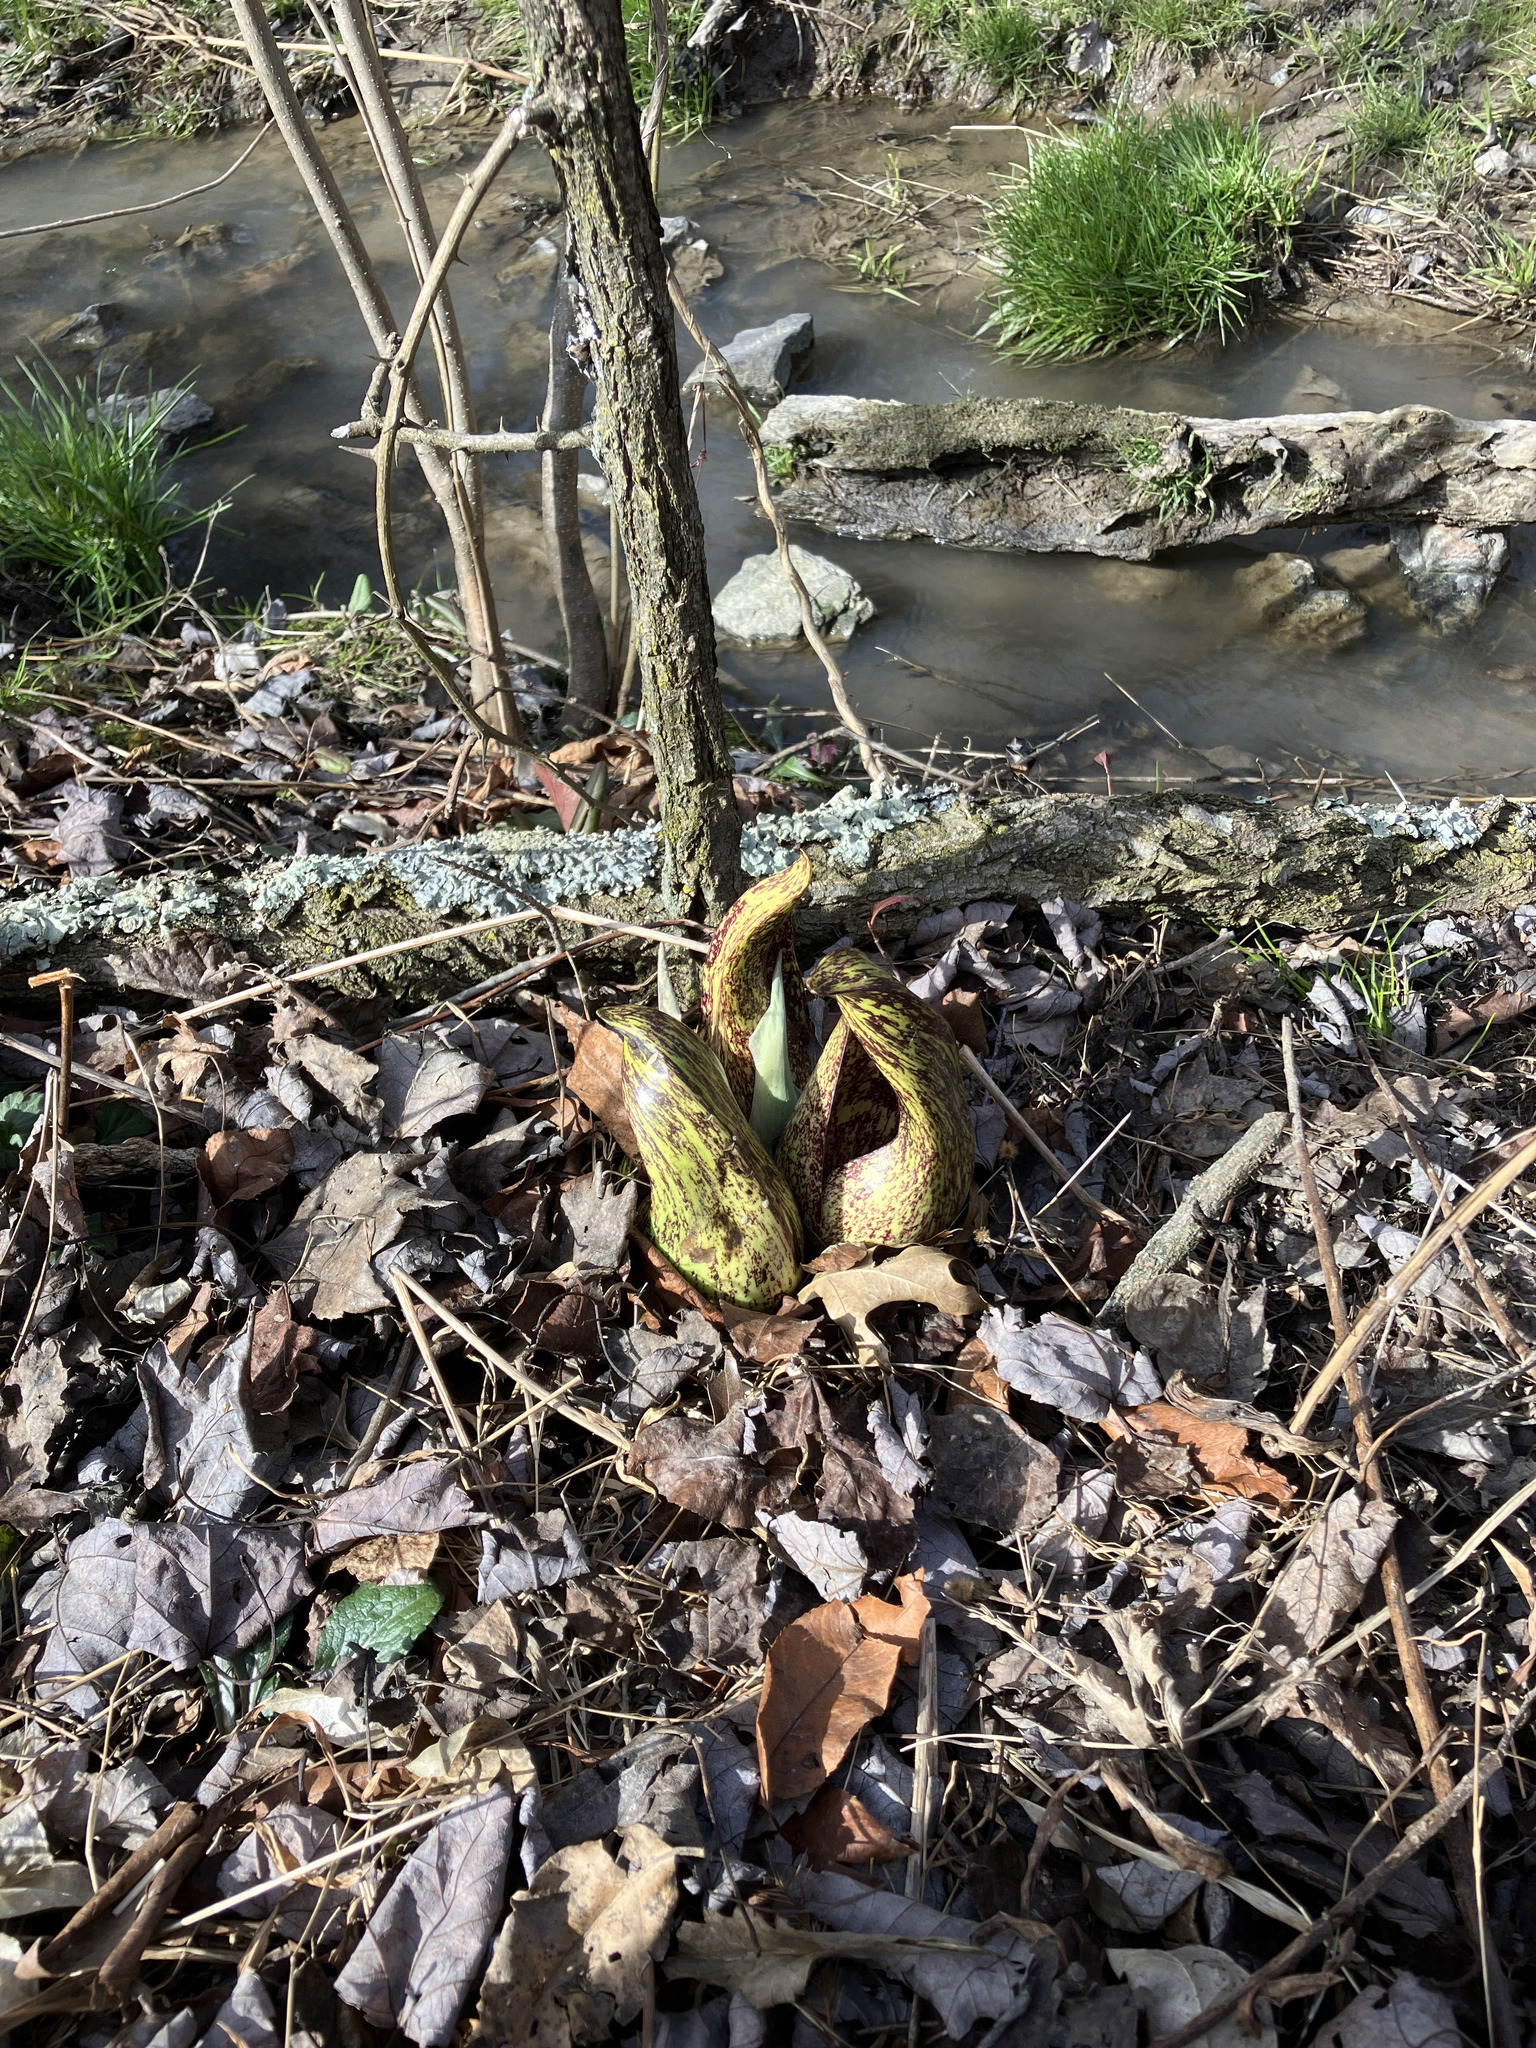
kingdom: Plantae
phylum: Tracheophyta
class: Liliopsida
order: Alismatales
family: Araceae
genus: Symplocarpus
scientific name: Symplocarpus foetidus
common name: Eastern skunk cabbage
